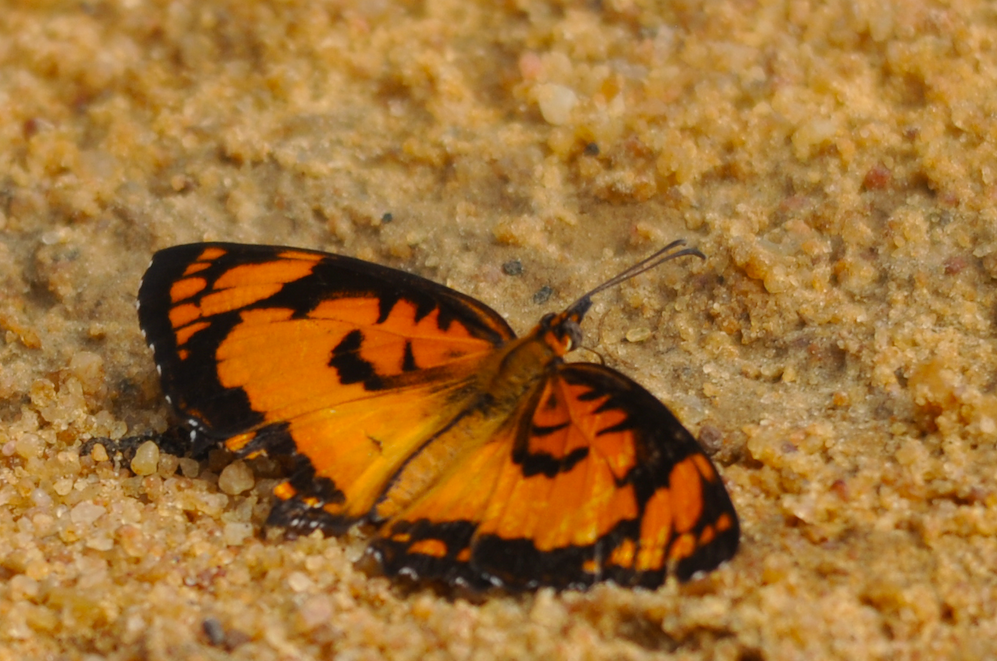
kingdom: Animalia
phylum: Arthropoda
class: Insecta
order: Lepidoptera
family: Nymphalidae
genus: Byblia
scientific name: Byblia anvatara
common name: African joker
